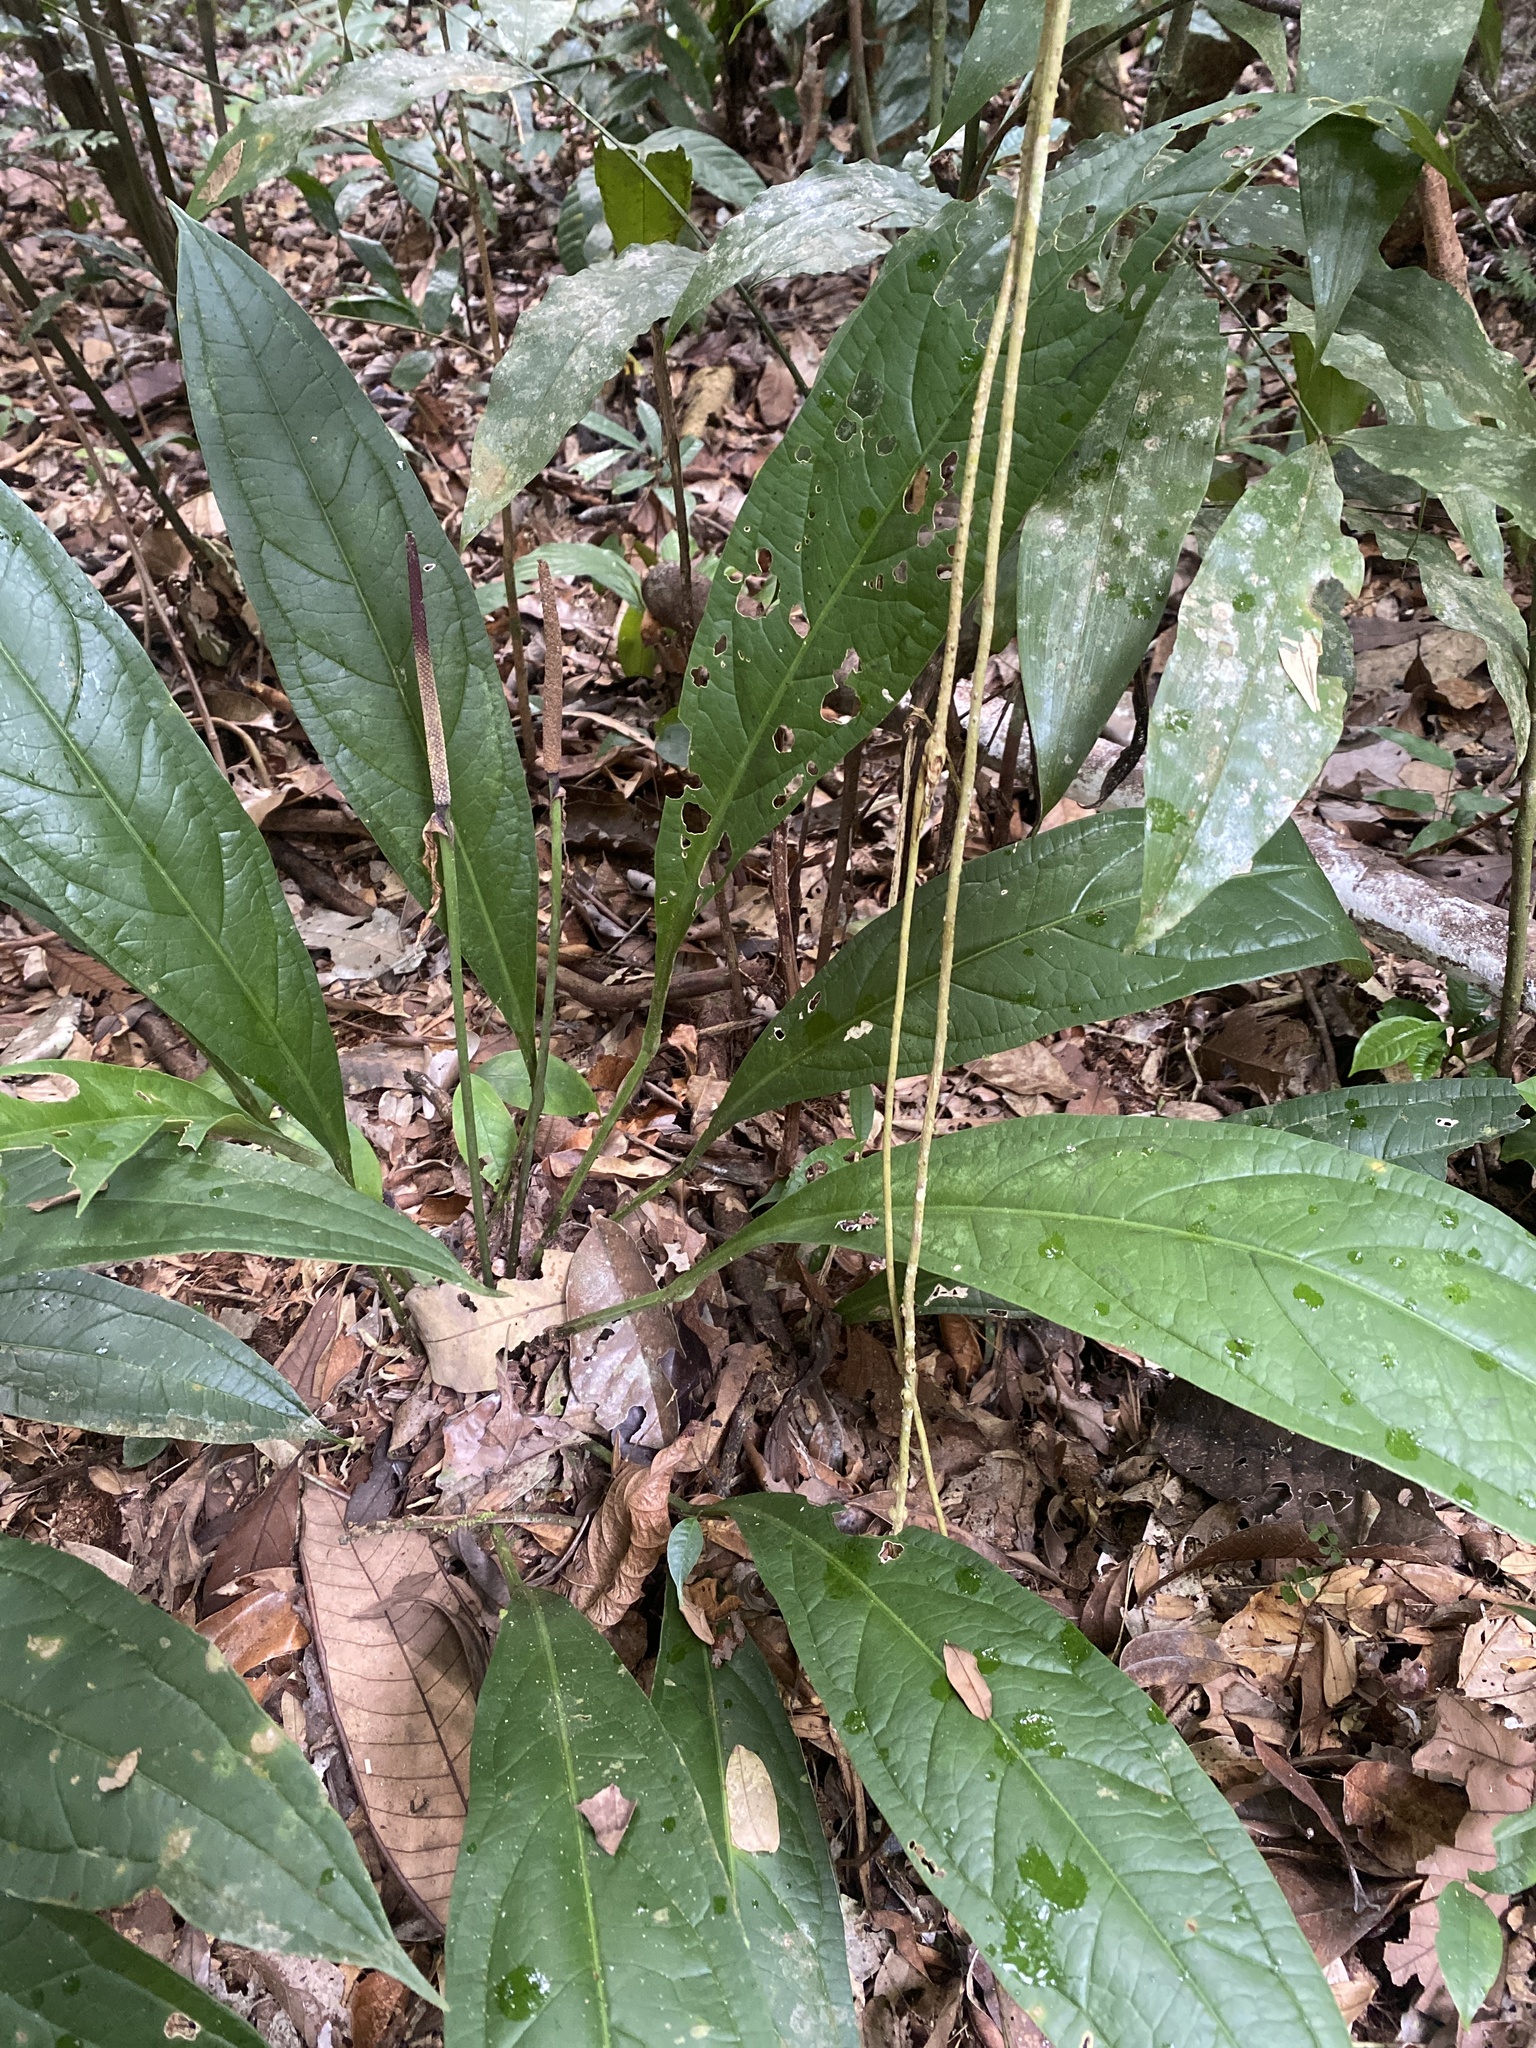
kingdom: Plantae
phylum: Tracheophyta
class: Liliopsida
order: Alismatales
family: Araceae
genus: Anthurium
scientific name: Anthurium atropurpureum
